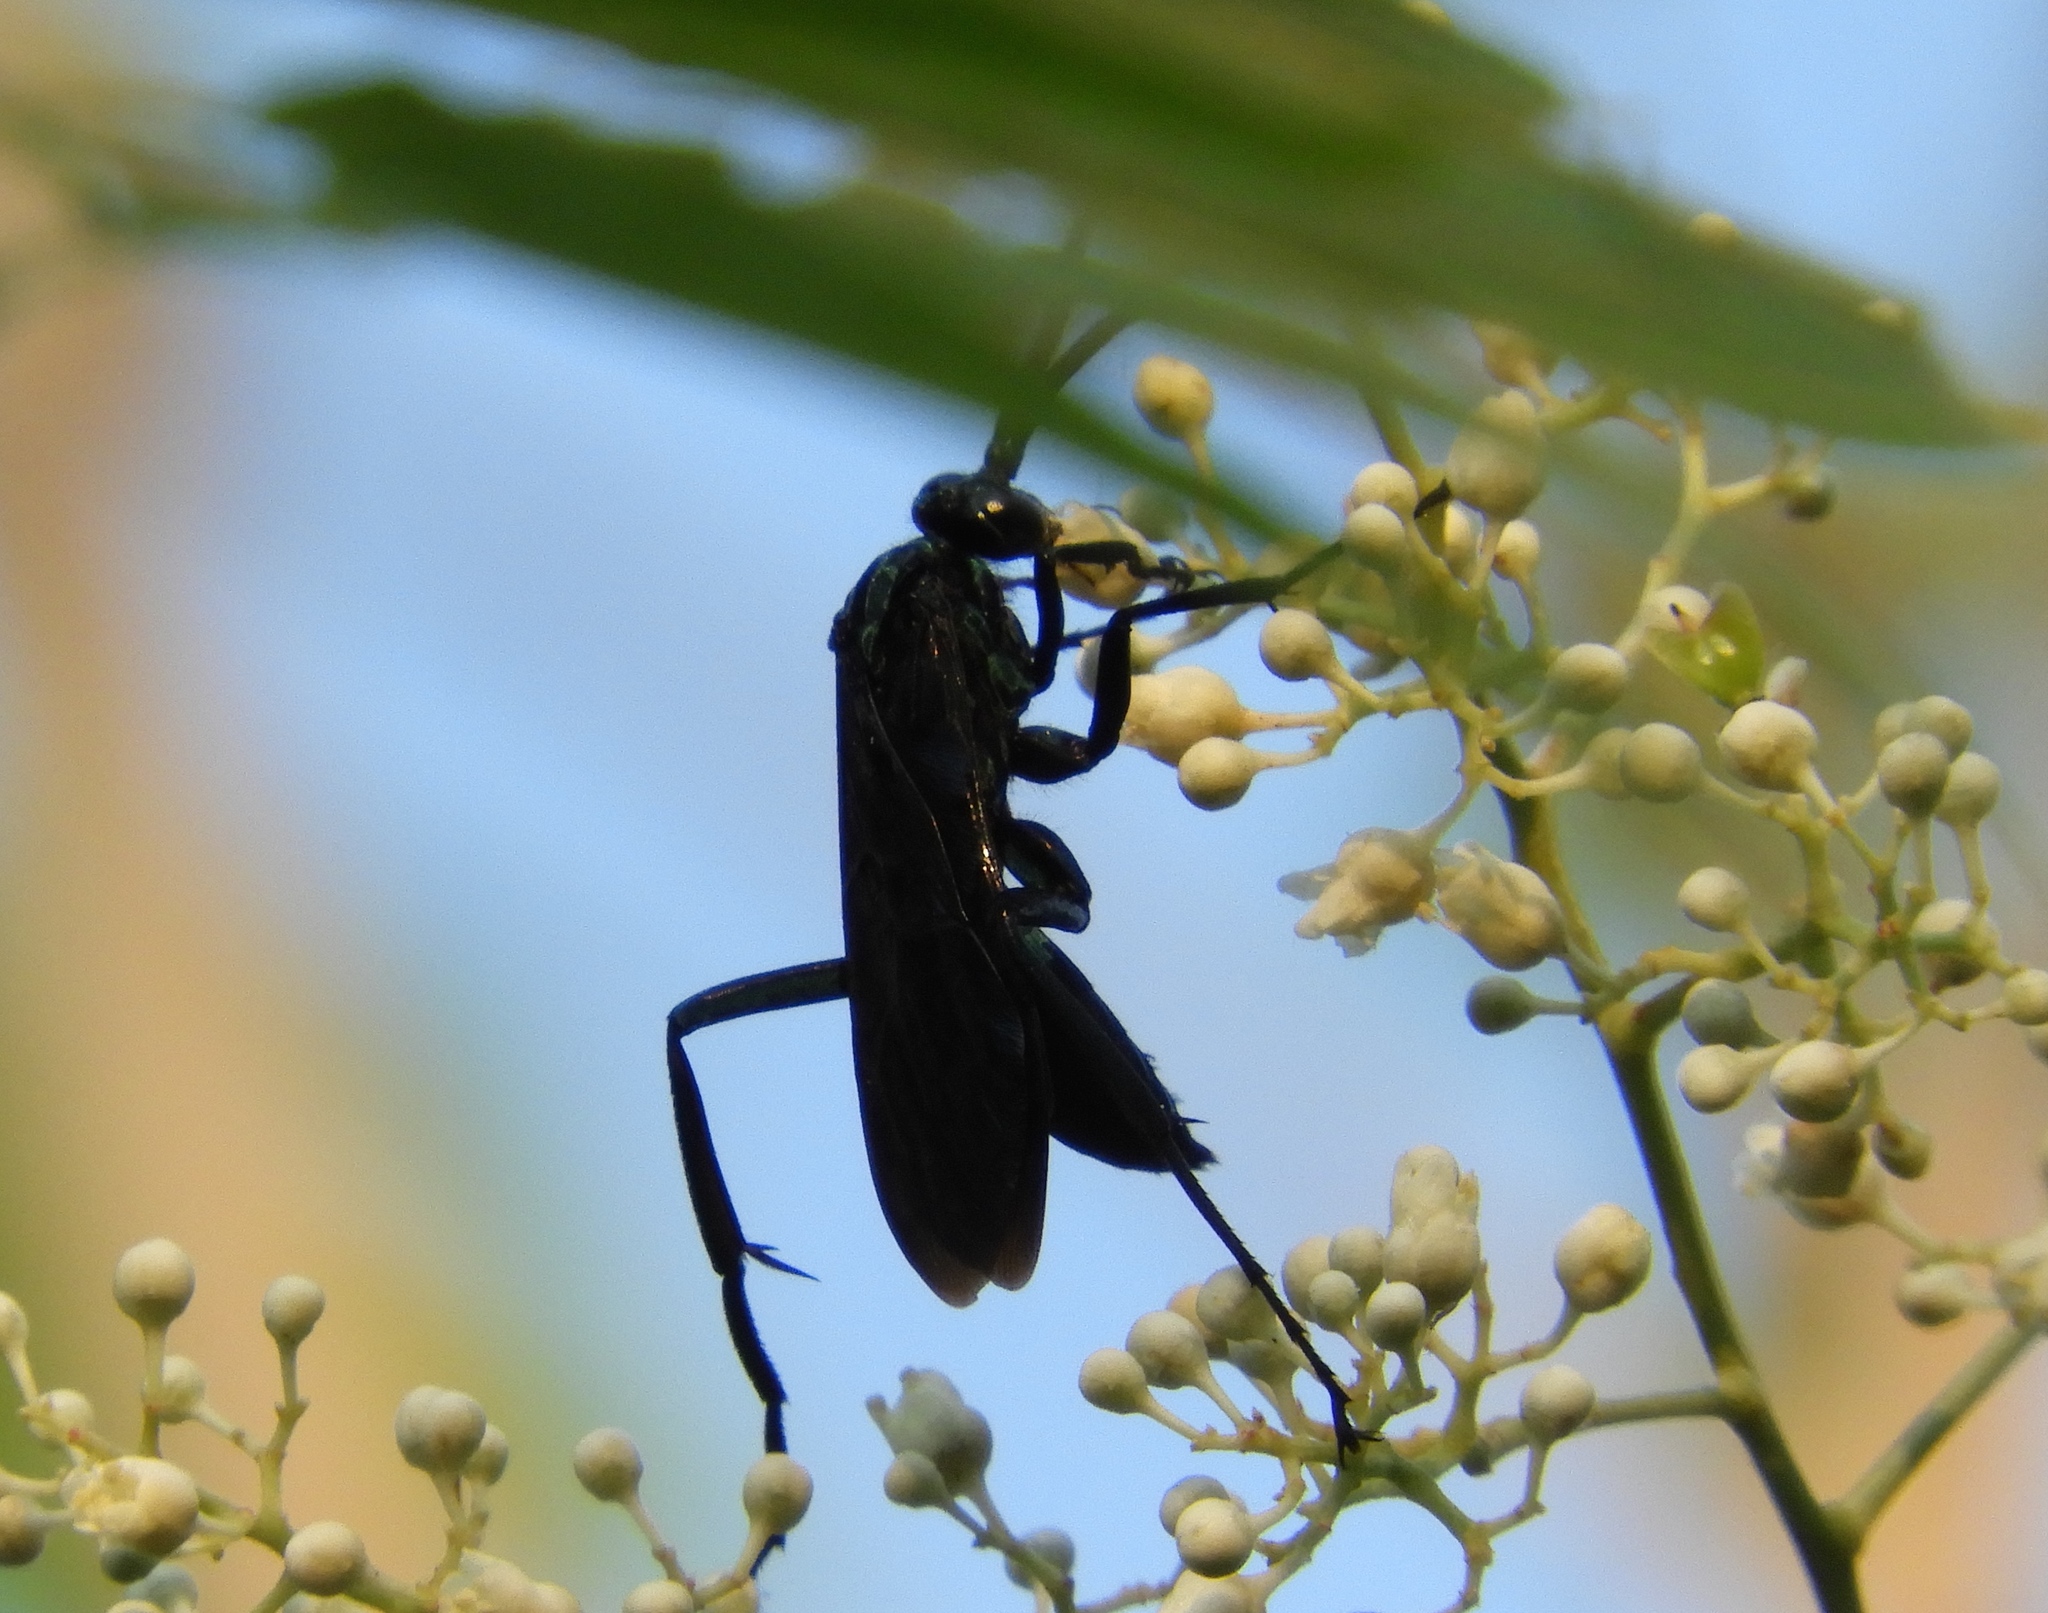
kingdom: Animalia
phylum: Arthropoda
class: Insecta
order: Hymenoptera
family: Pompilidae
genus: Pepsis
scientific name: Pepsis
